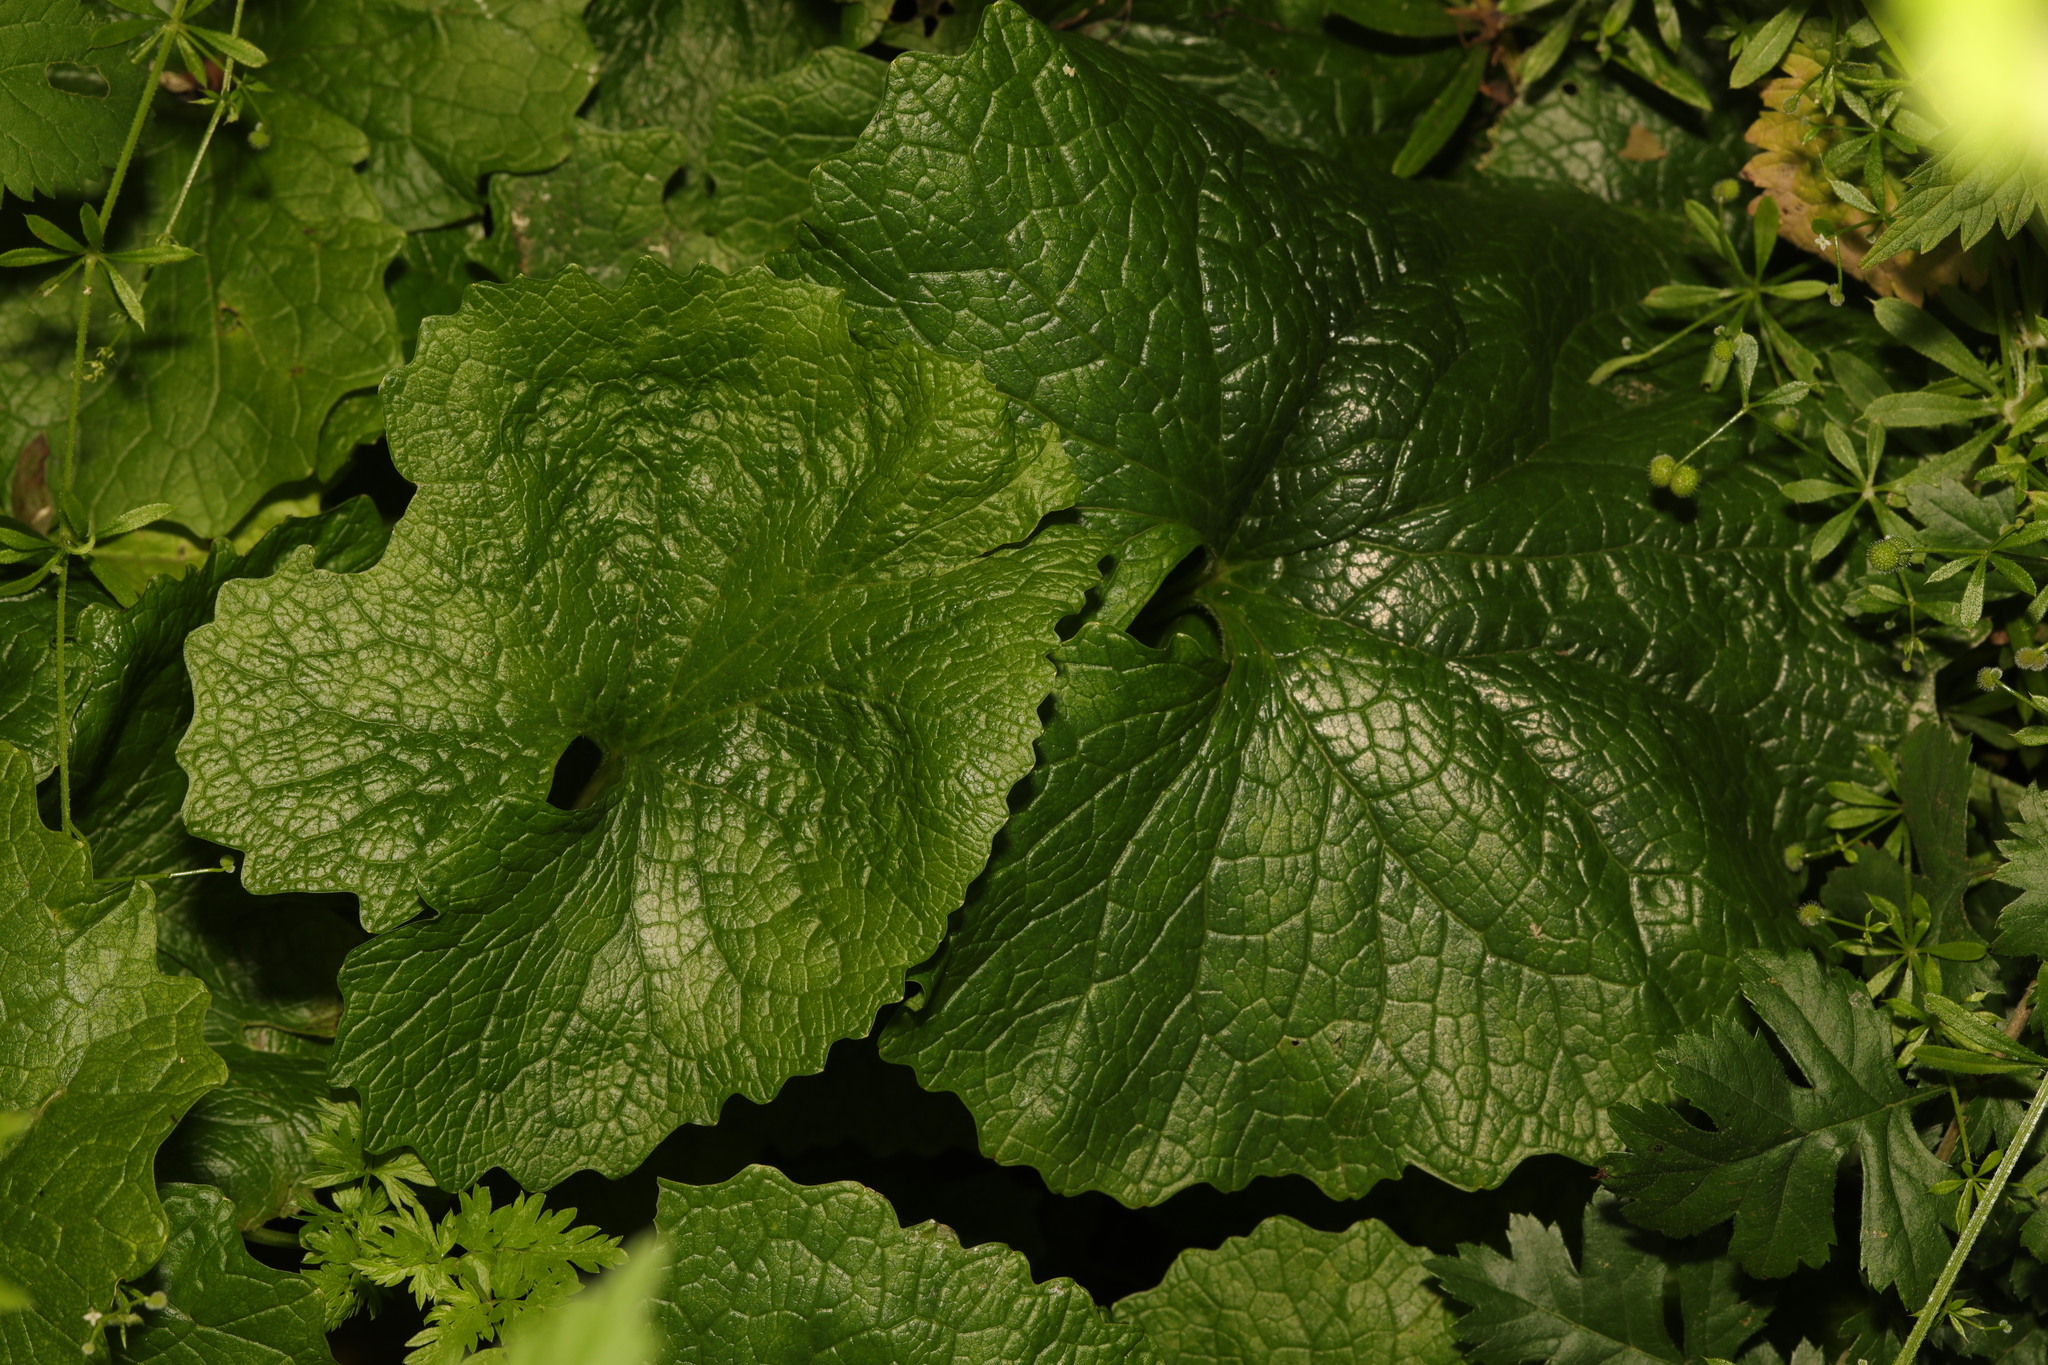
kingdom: Plantae
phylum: Tracheophyta
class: Magnoliopsida
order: Brassicales
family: Brassicaceae
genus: Alliaria
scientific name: Alliaria petiolata
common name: Garlic mustard
